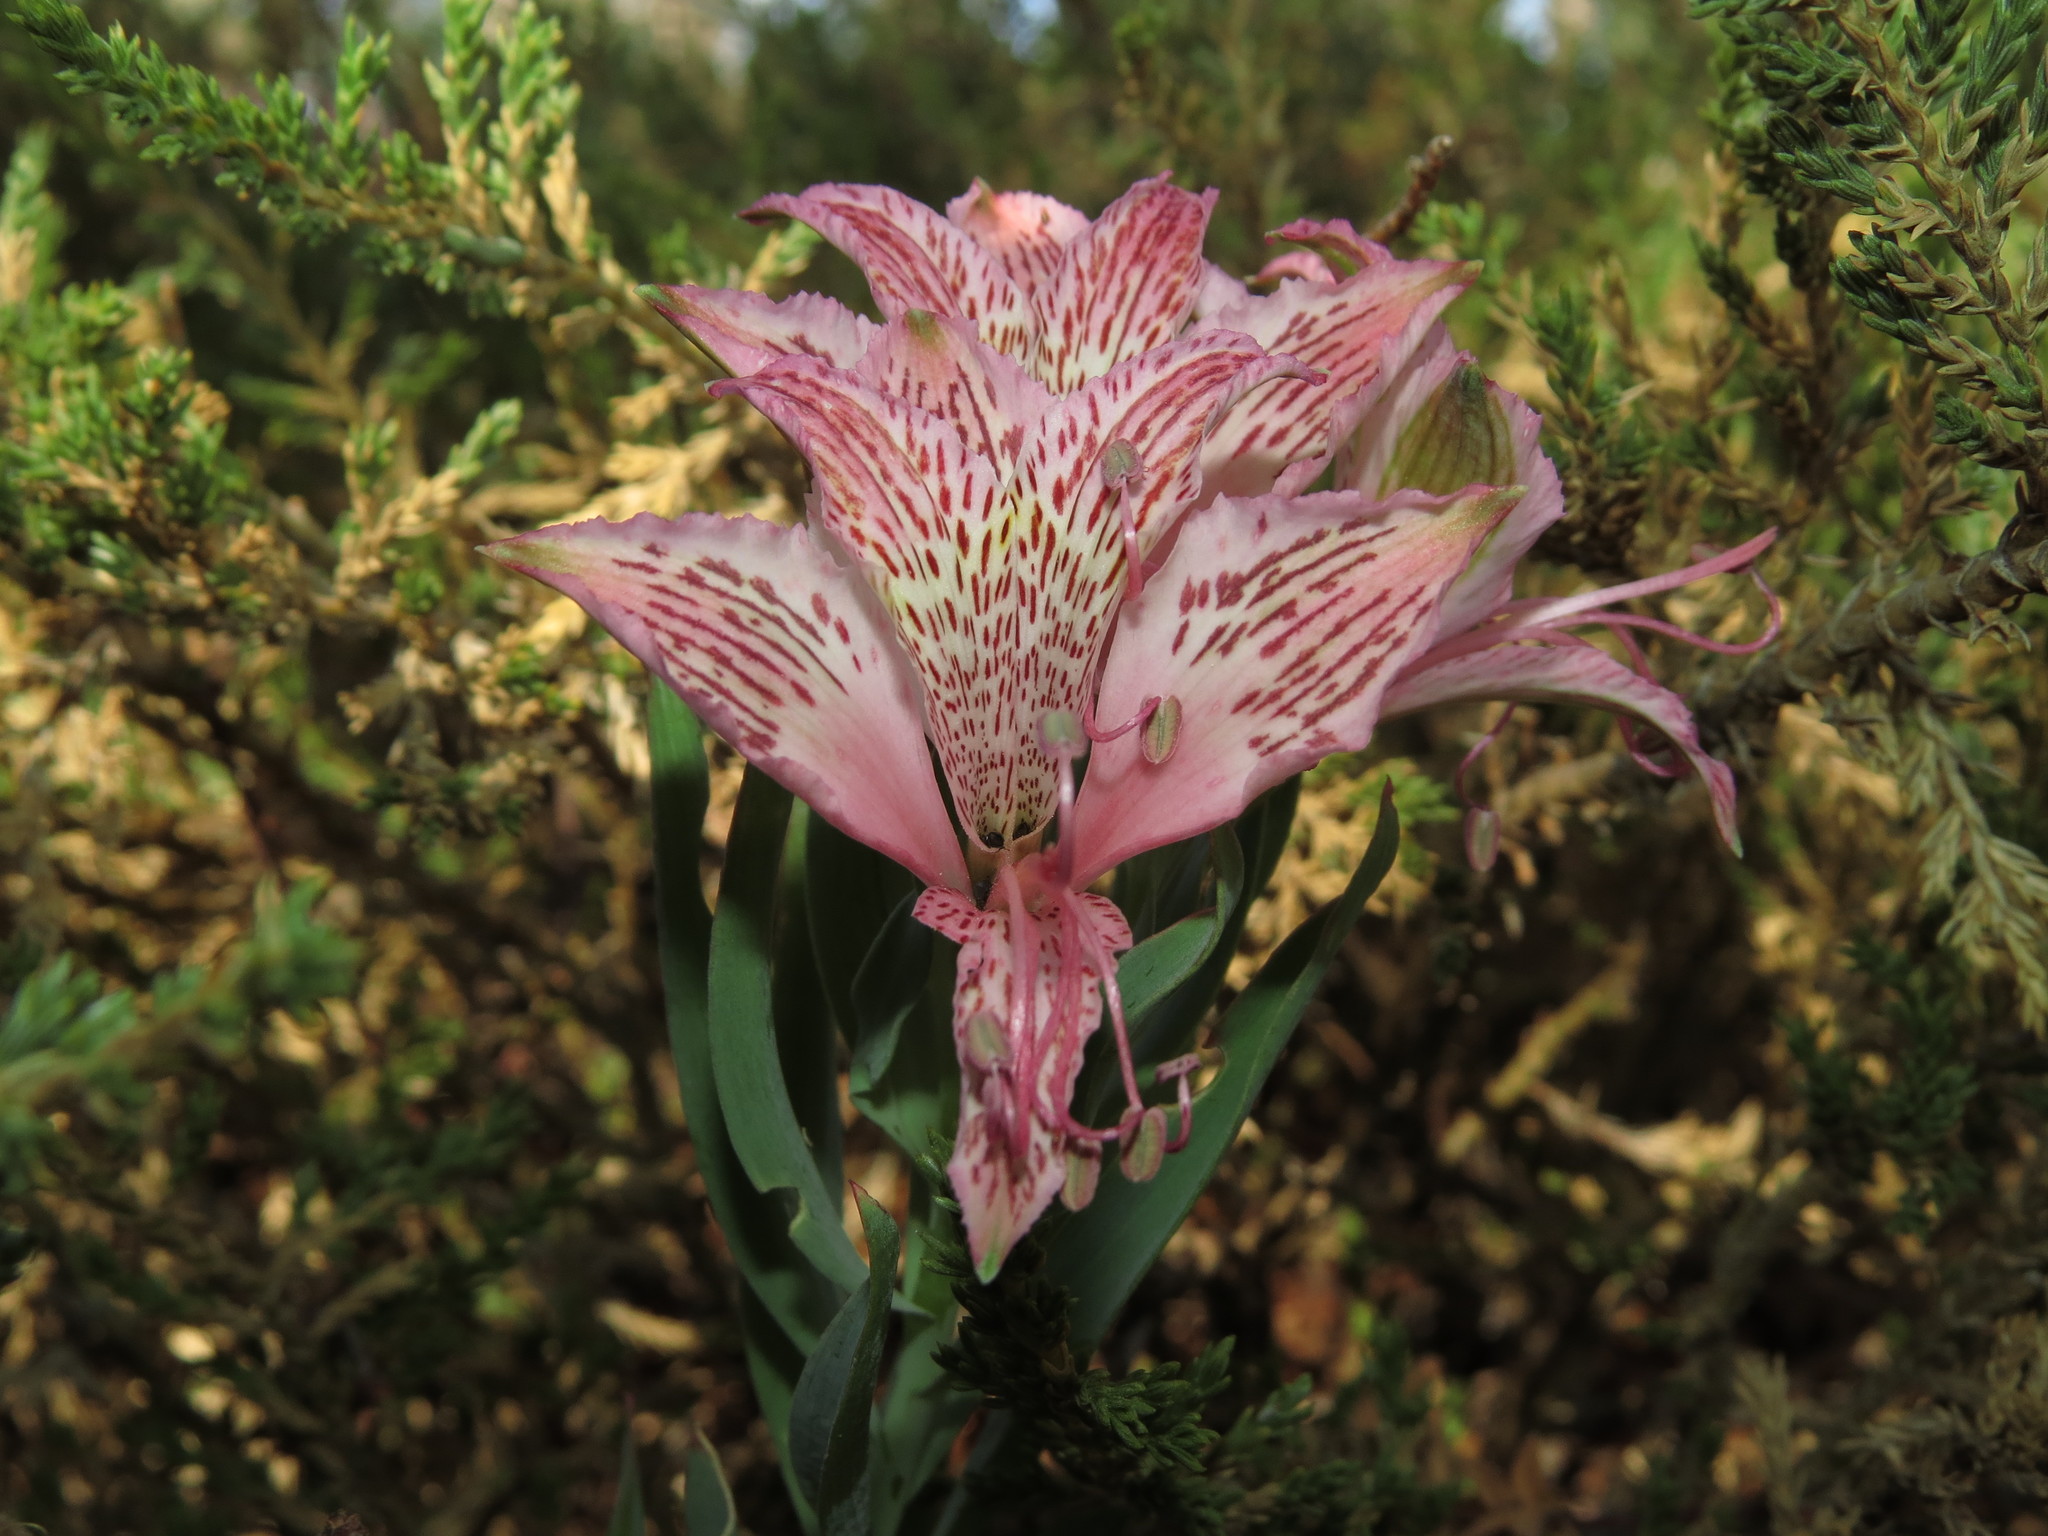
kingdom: Plantae
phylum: Tracheophyta
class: Liliopsida
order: Liliales
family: Alstroemeriaceae
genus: Alstroemeria
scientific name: Alstroemeria garaventae
